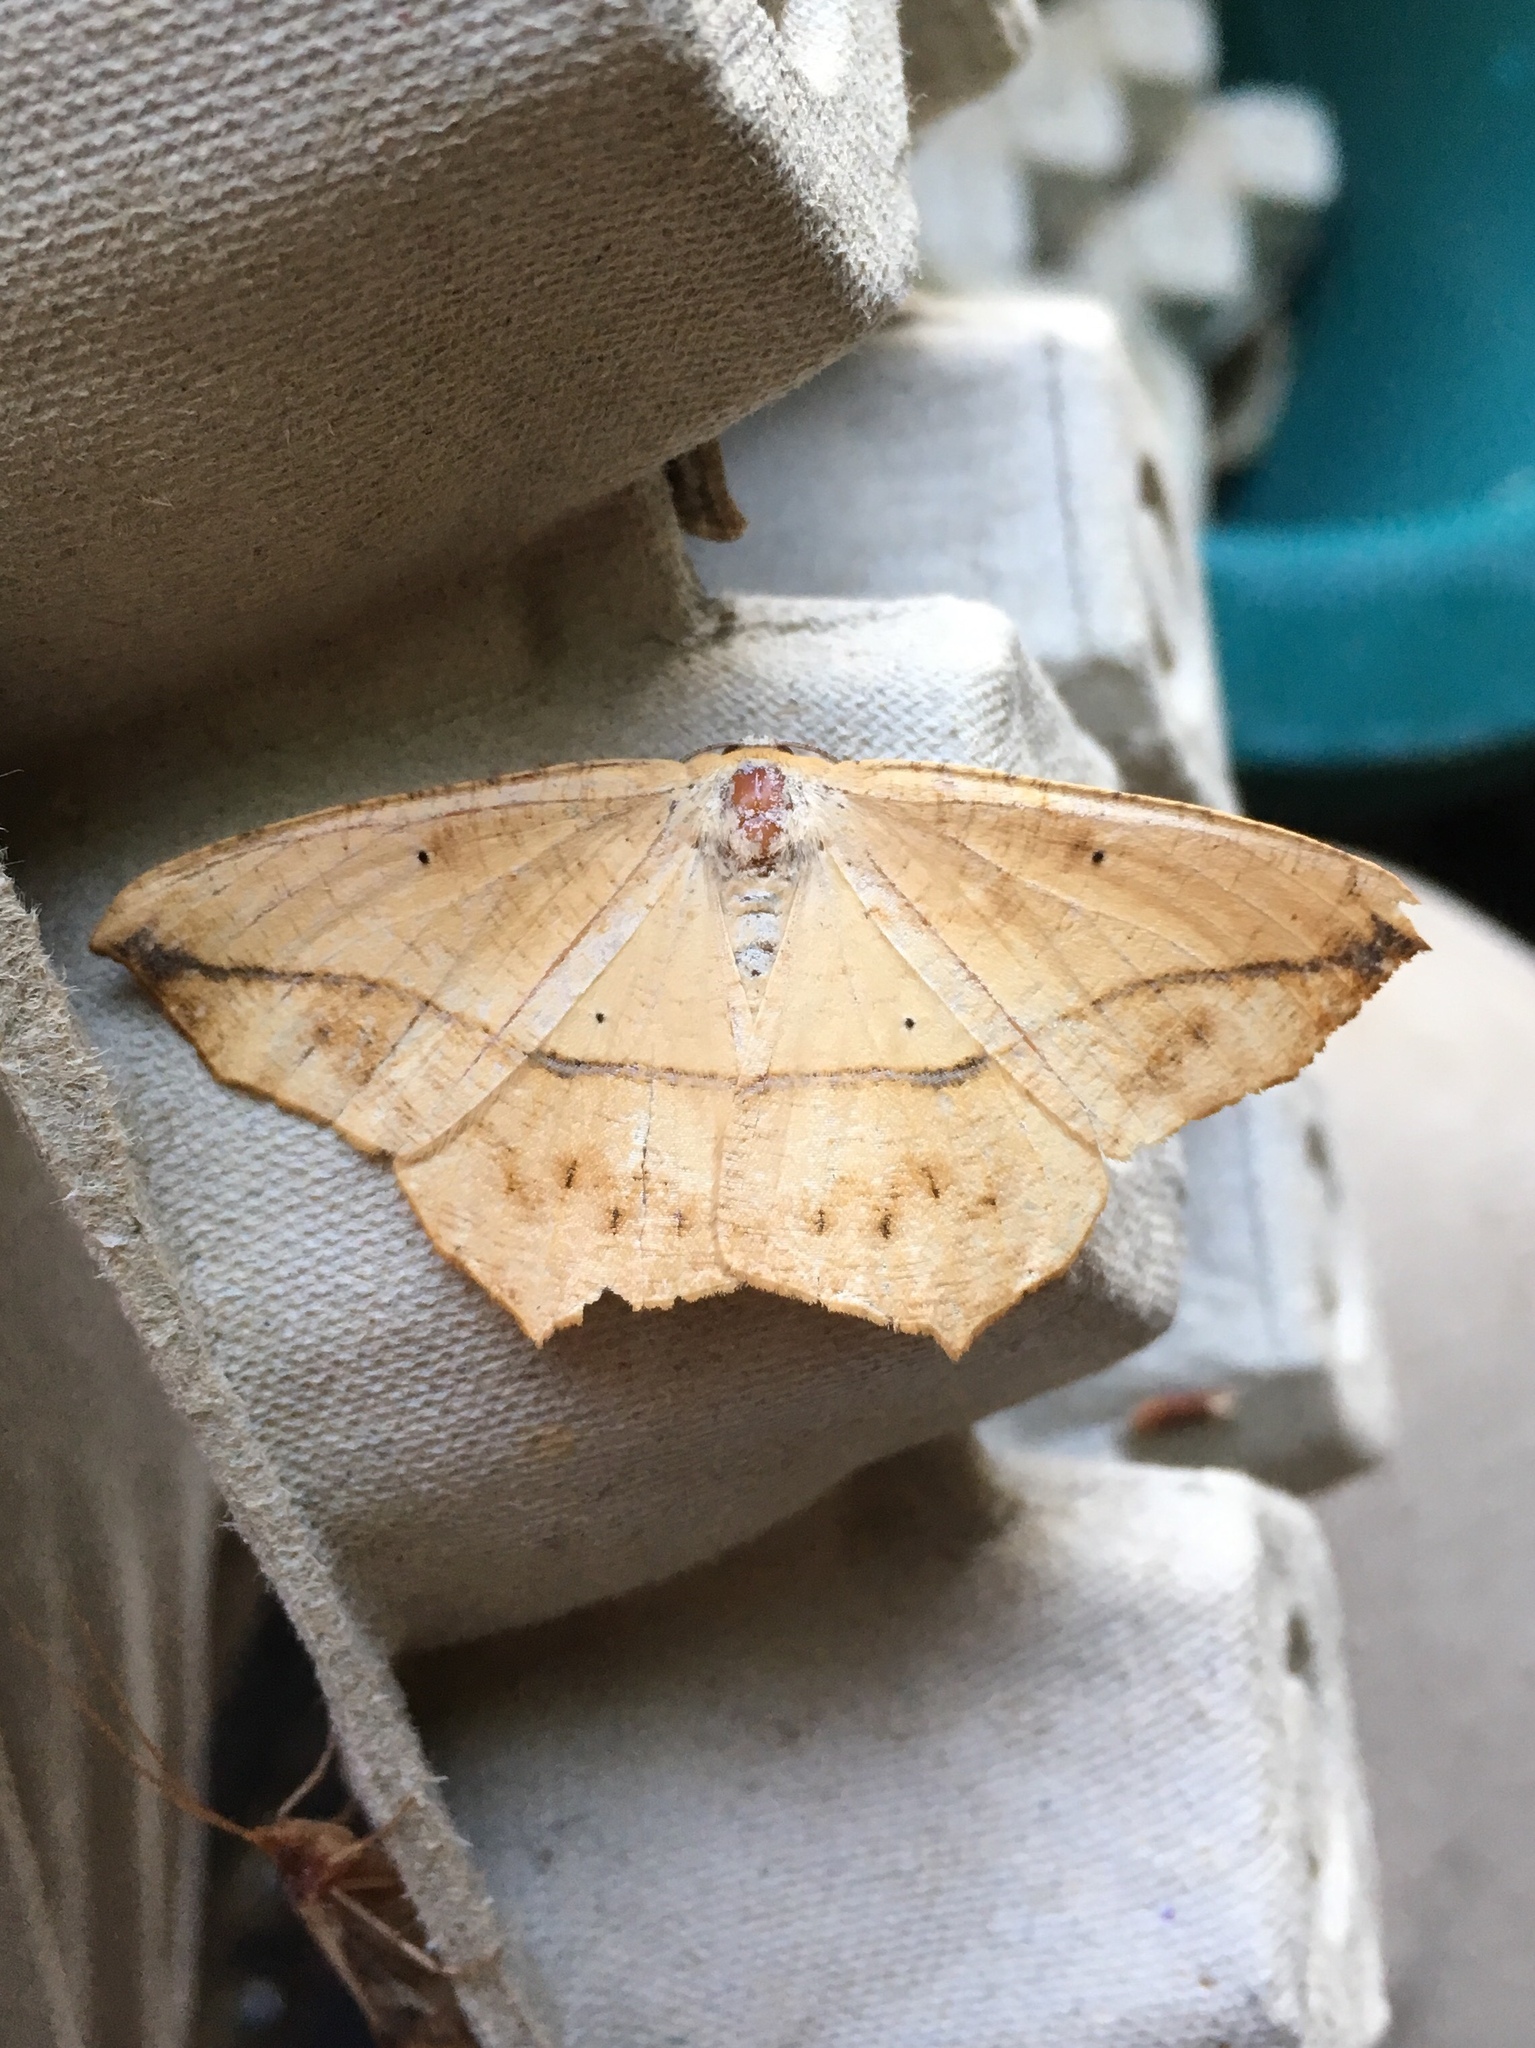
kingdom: Animalia
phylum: Arthropoda
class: Insecta
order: Lepidoptera
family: Geometridae
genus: Prochoerodes
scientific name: Prochoerodes lineola
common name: Large maple spanworm
